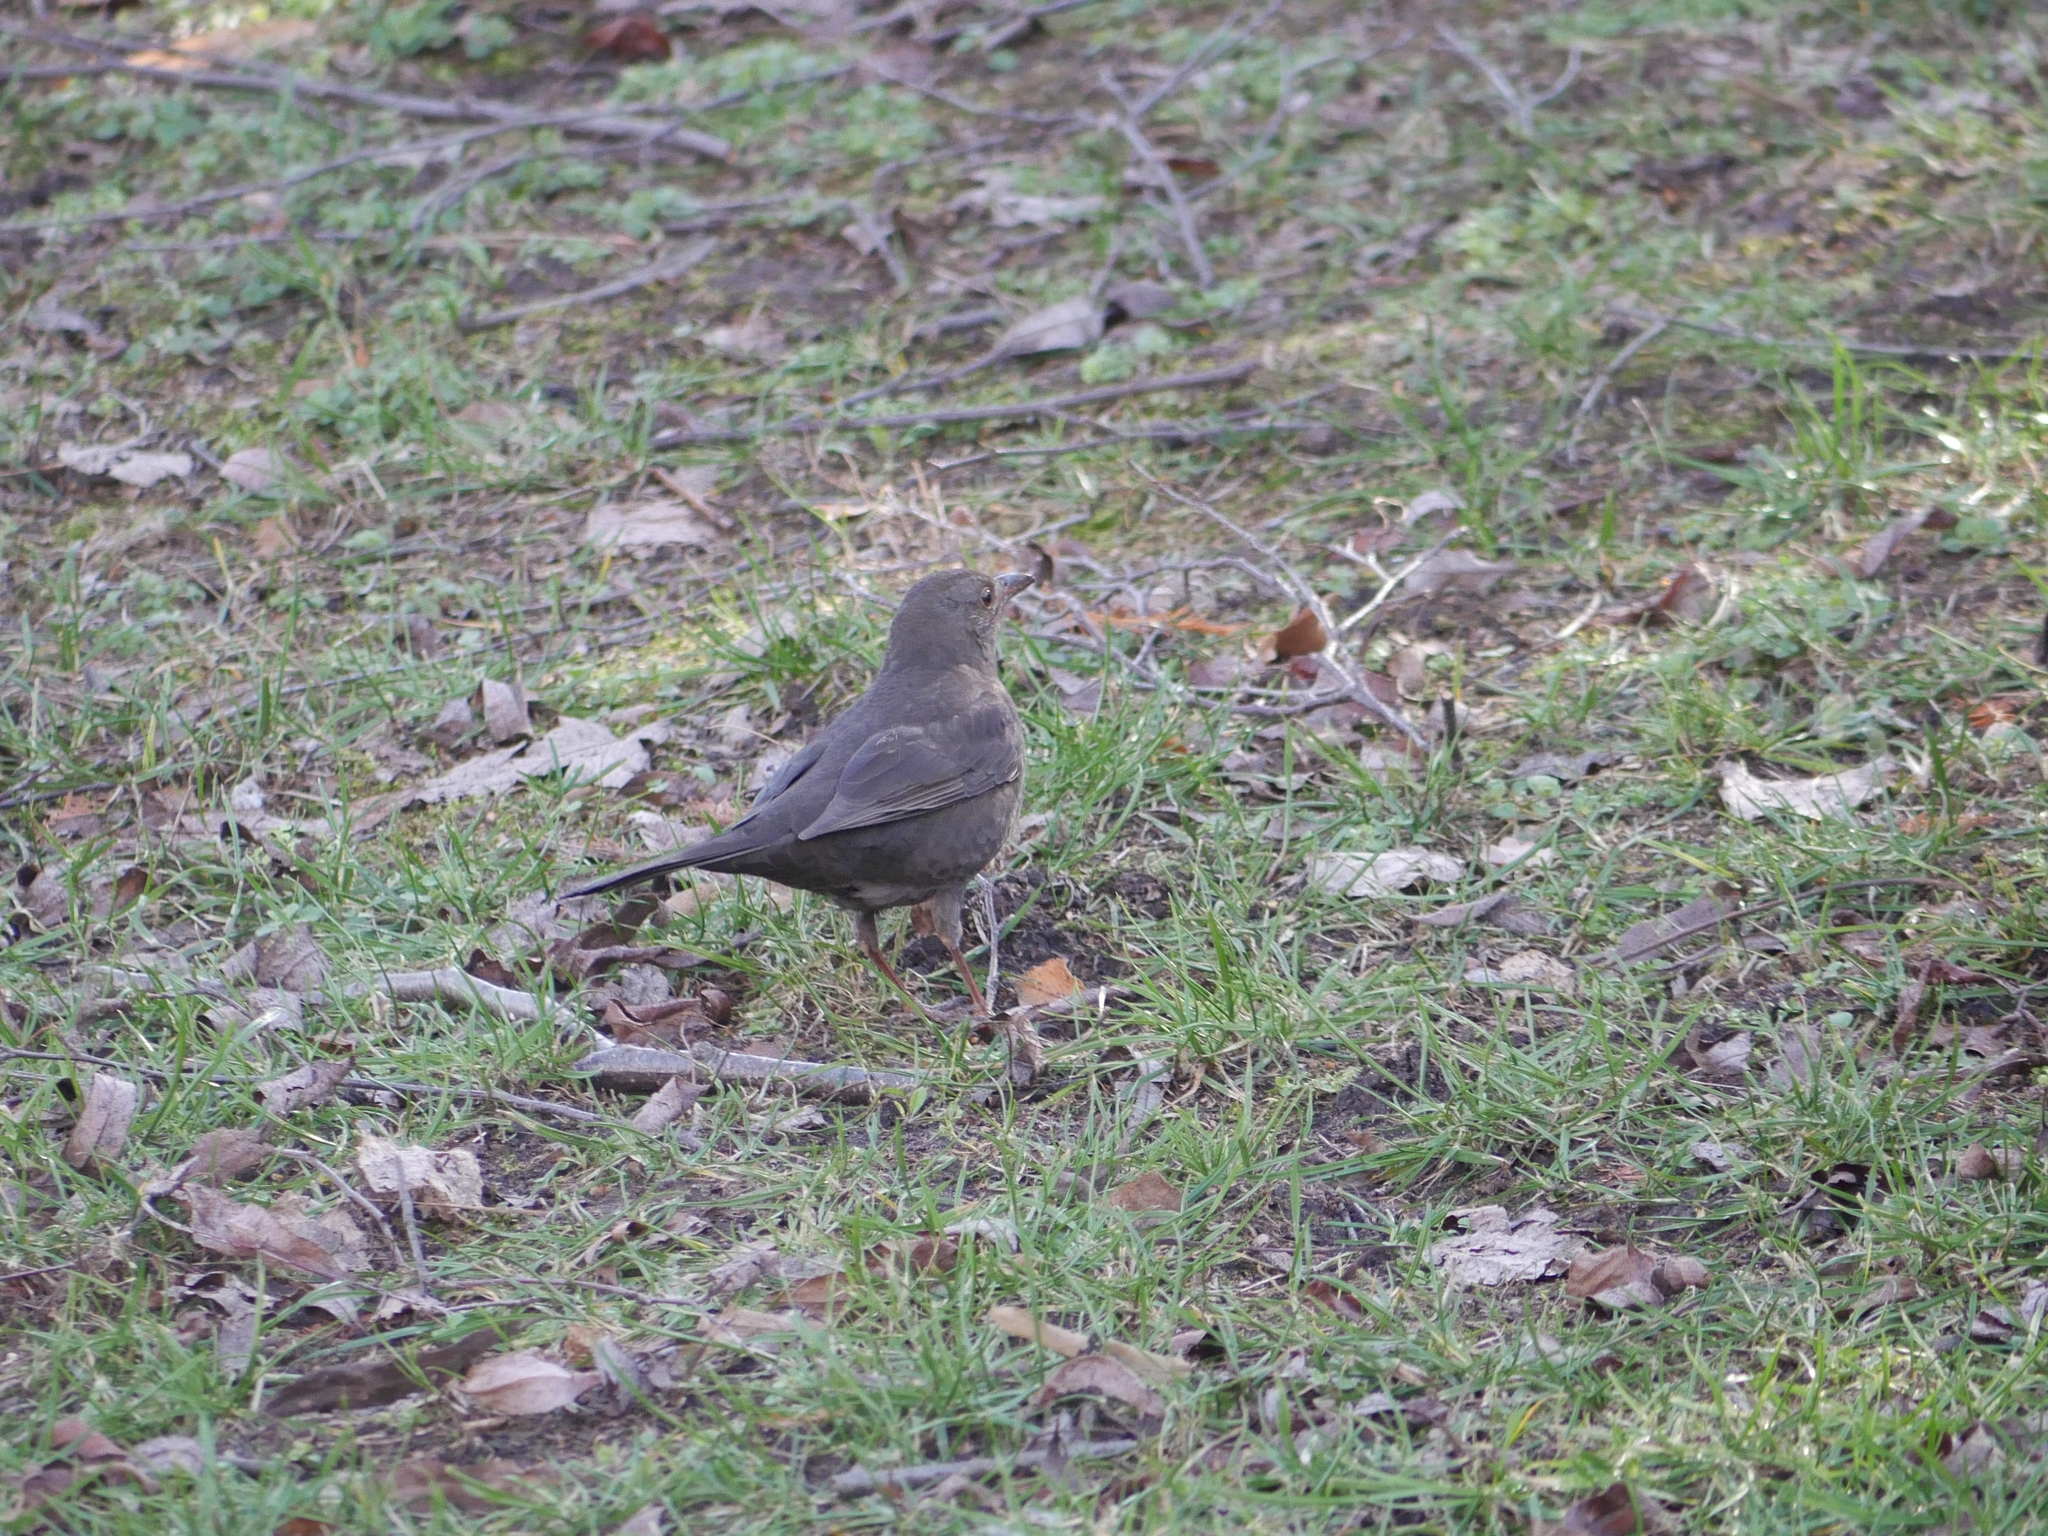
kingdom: Animalia
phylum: Chordata
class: Aves
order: Passeriformes
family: Turdidae
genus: Turdus
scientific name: Turdus merula
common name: Common blackbird
